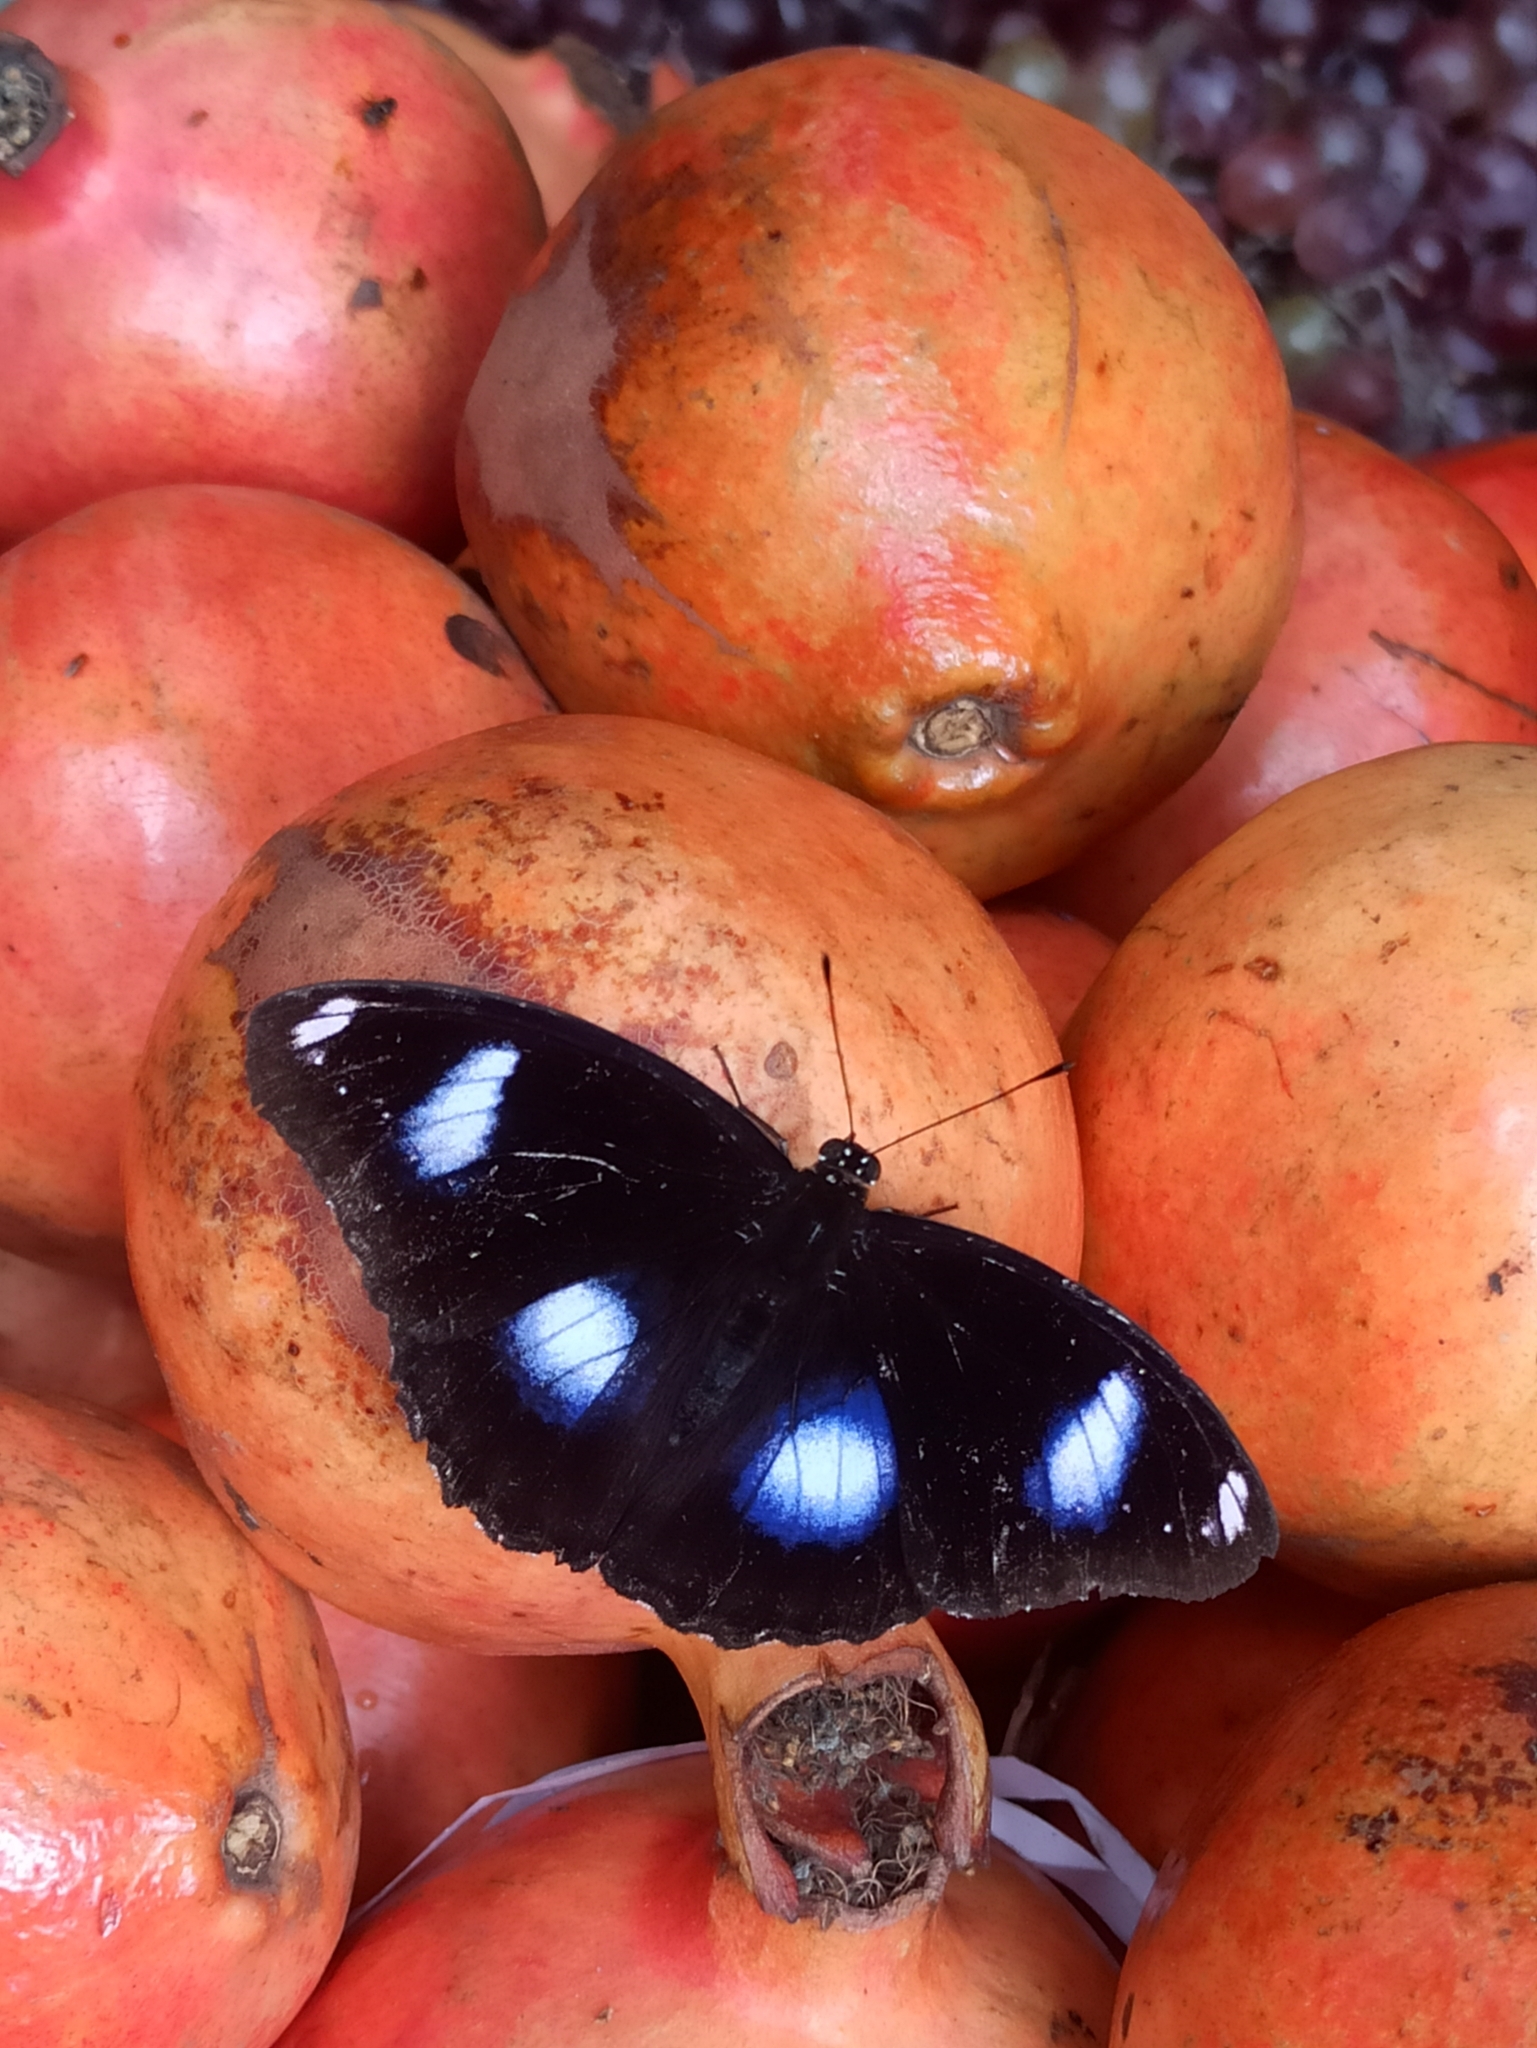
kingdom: Animalia
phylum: Arthropoda
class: Insecta
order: Lepidoptera
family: Nymphalidae
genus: Hypolimnas
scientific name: Hypolimnas bolina
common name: Great eggfly
